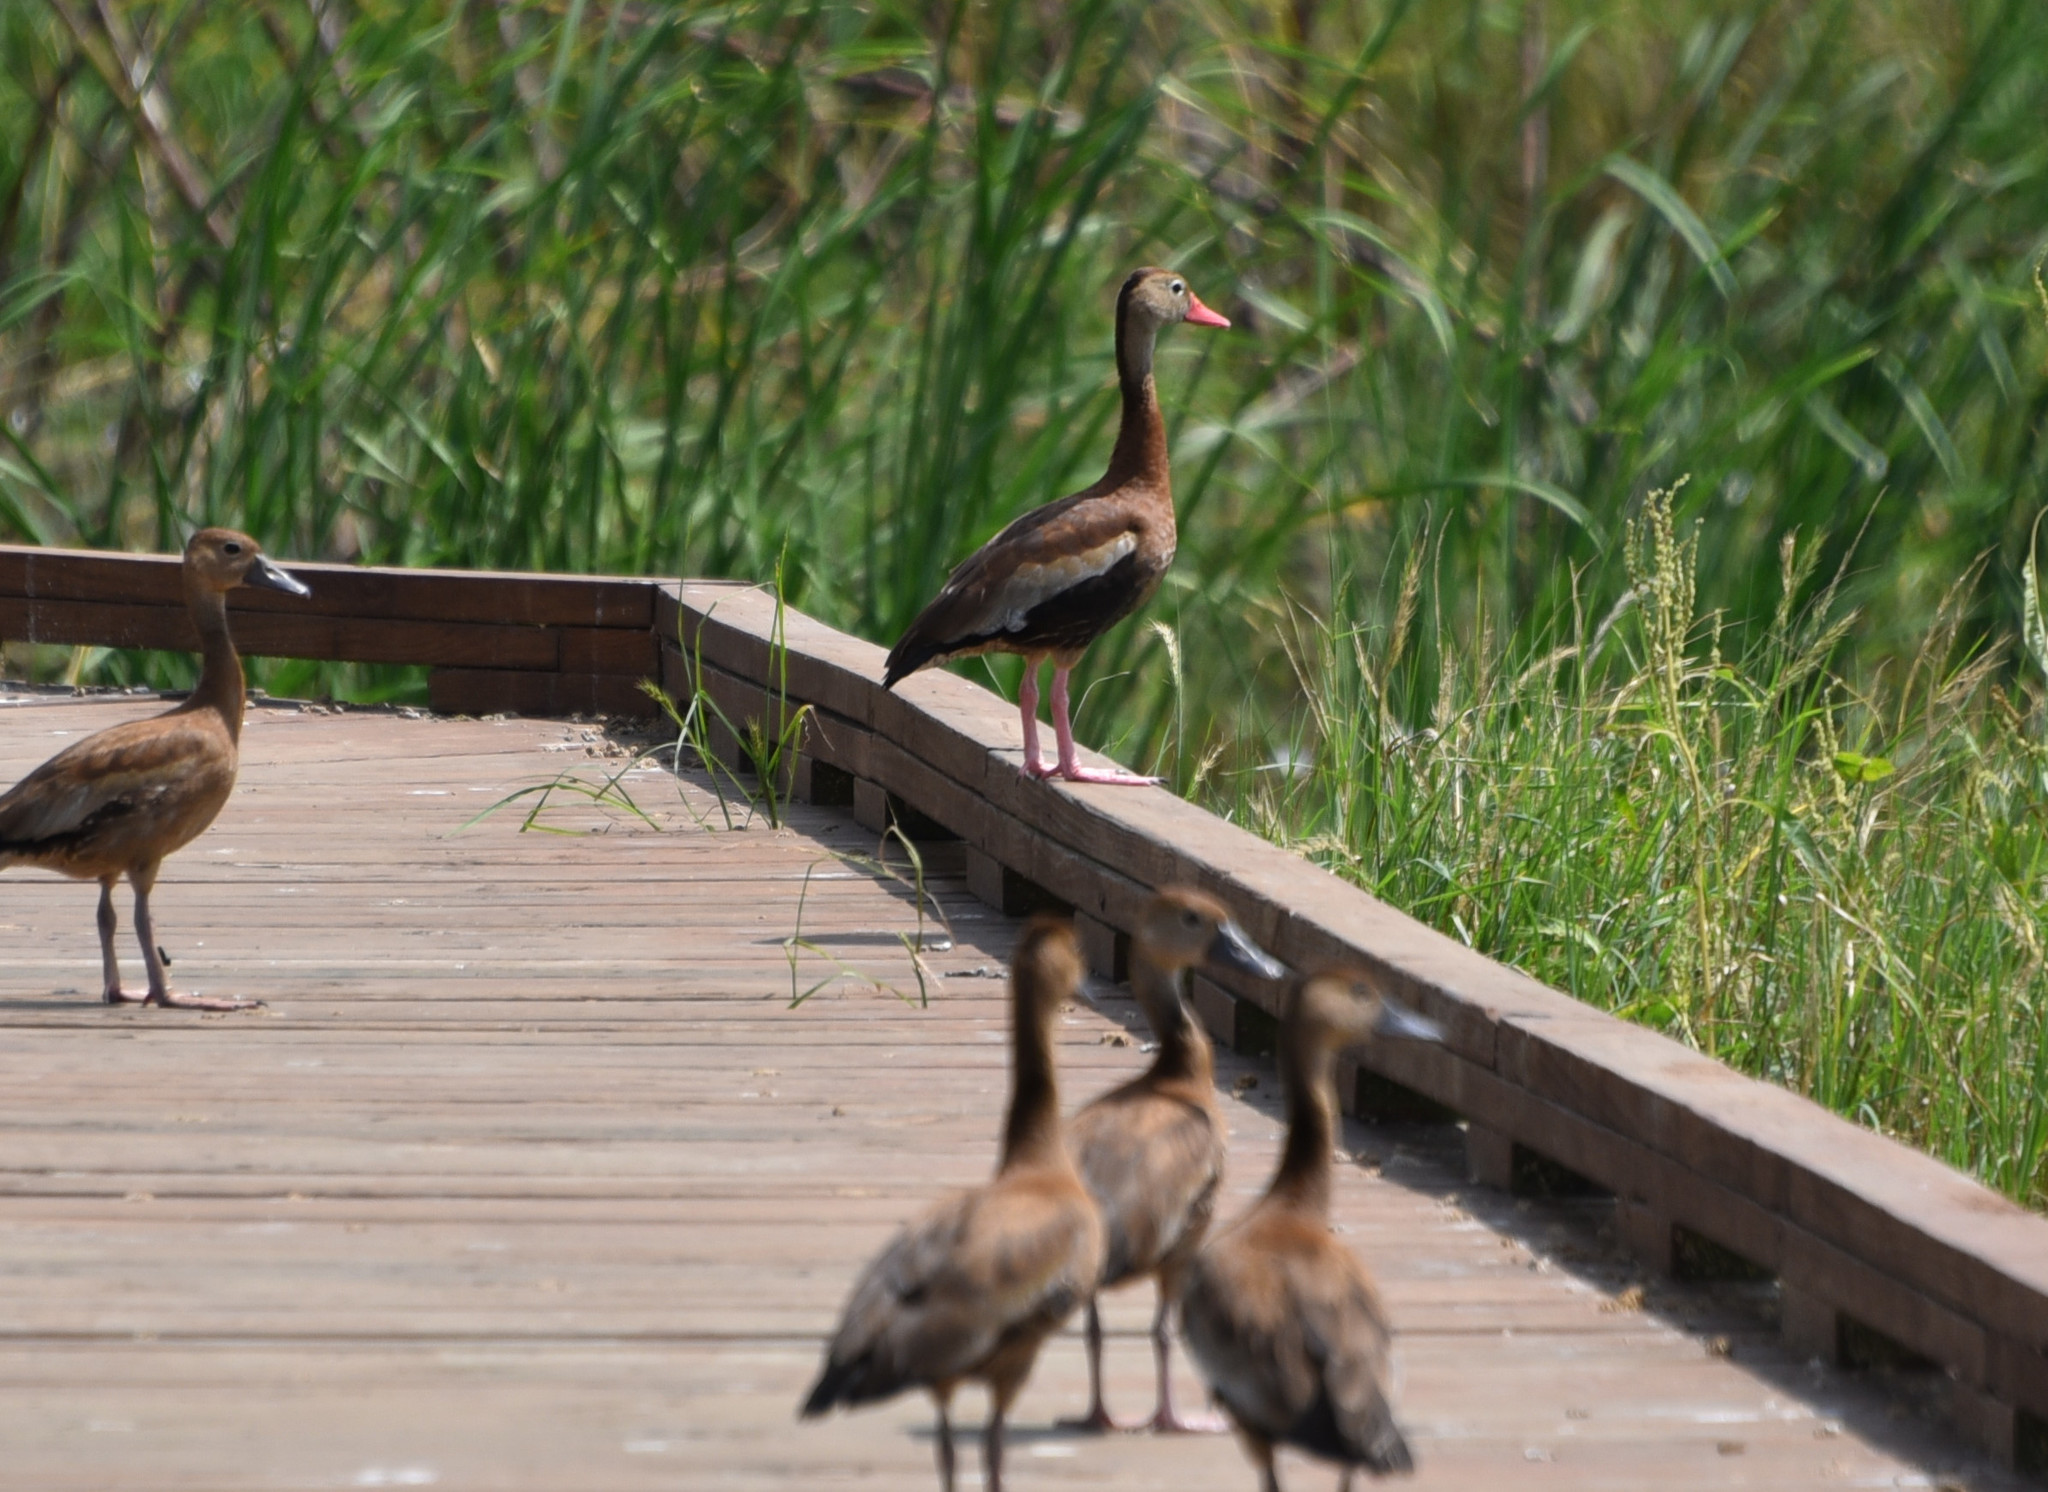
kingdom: Animalia
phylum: Chordata
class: Aves
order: Anseriformes
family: Anatidae
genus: Dendrocygna
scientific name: Dendrocygna autumnalis
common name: Black-bellied whistling duck
